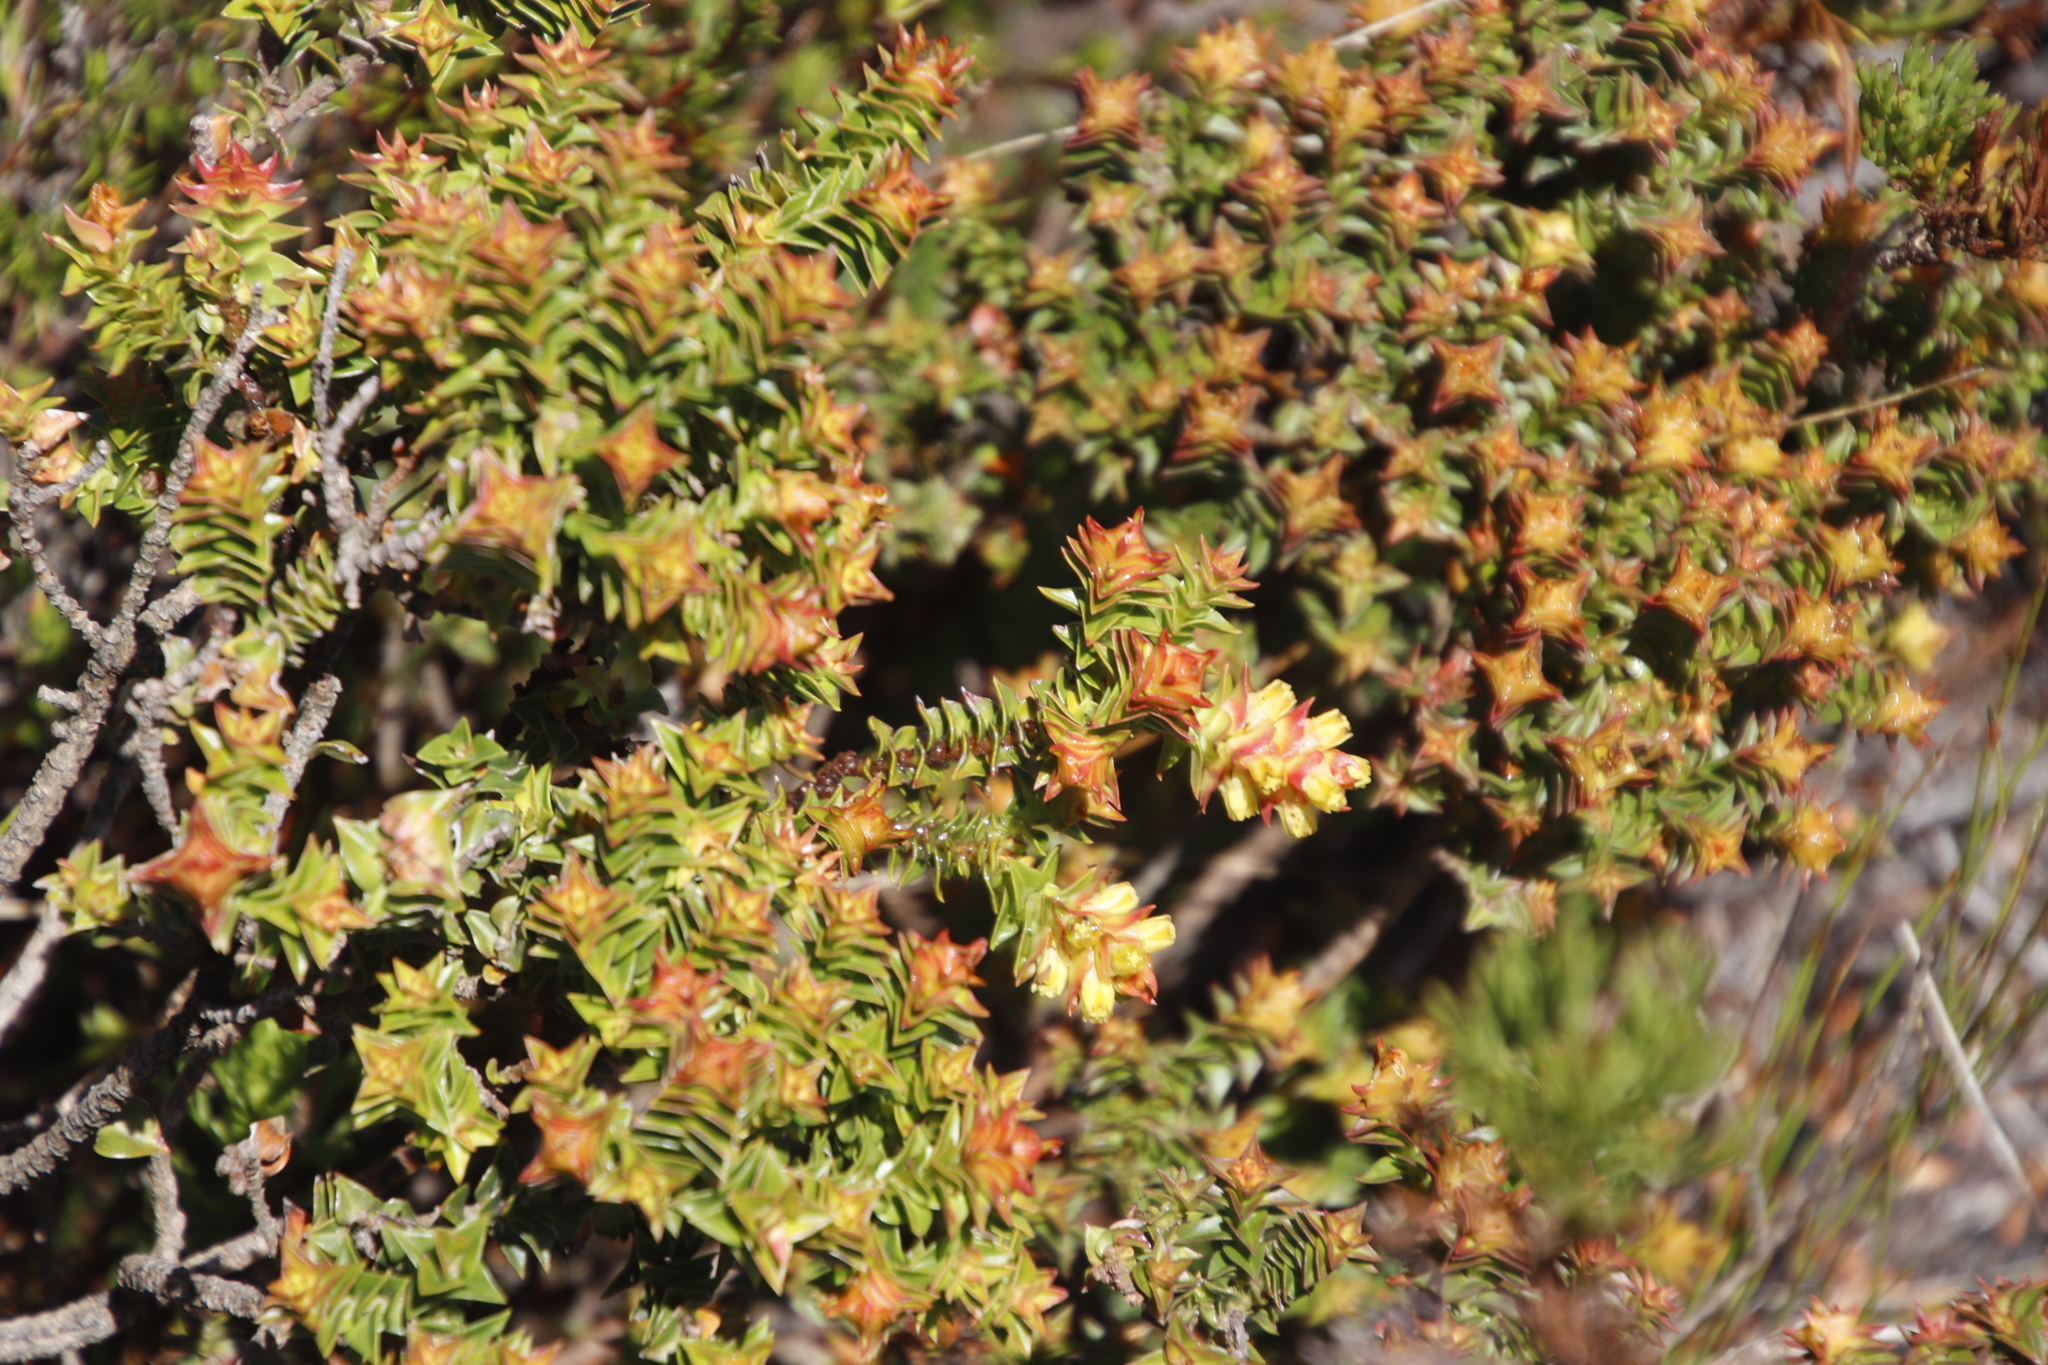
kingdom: Plantae
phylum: Tracheophyta
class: Magnoliopsida
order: Myrtales
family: Penaeaceae
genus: Penaea
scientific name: Penaea mucronata
